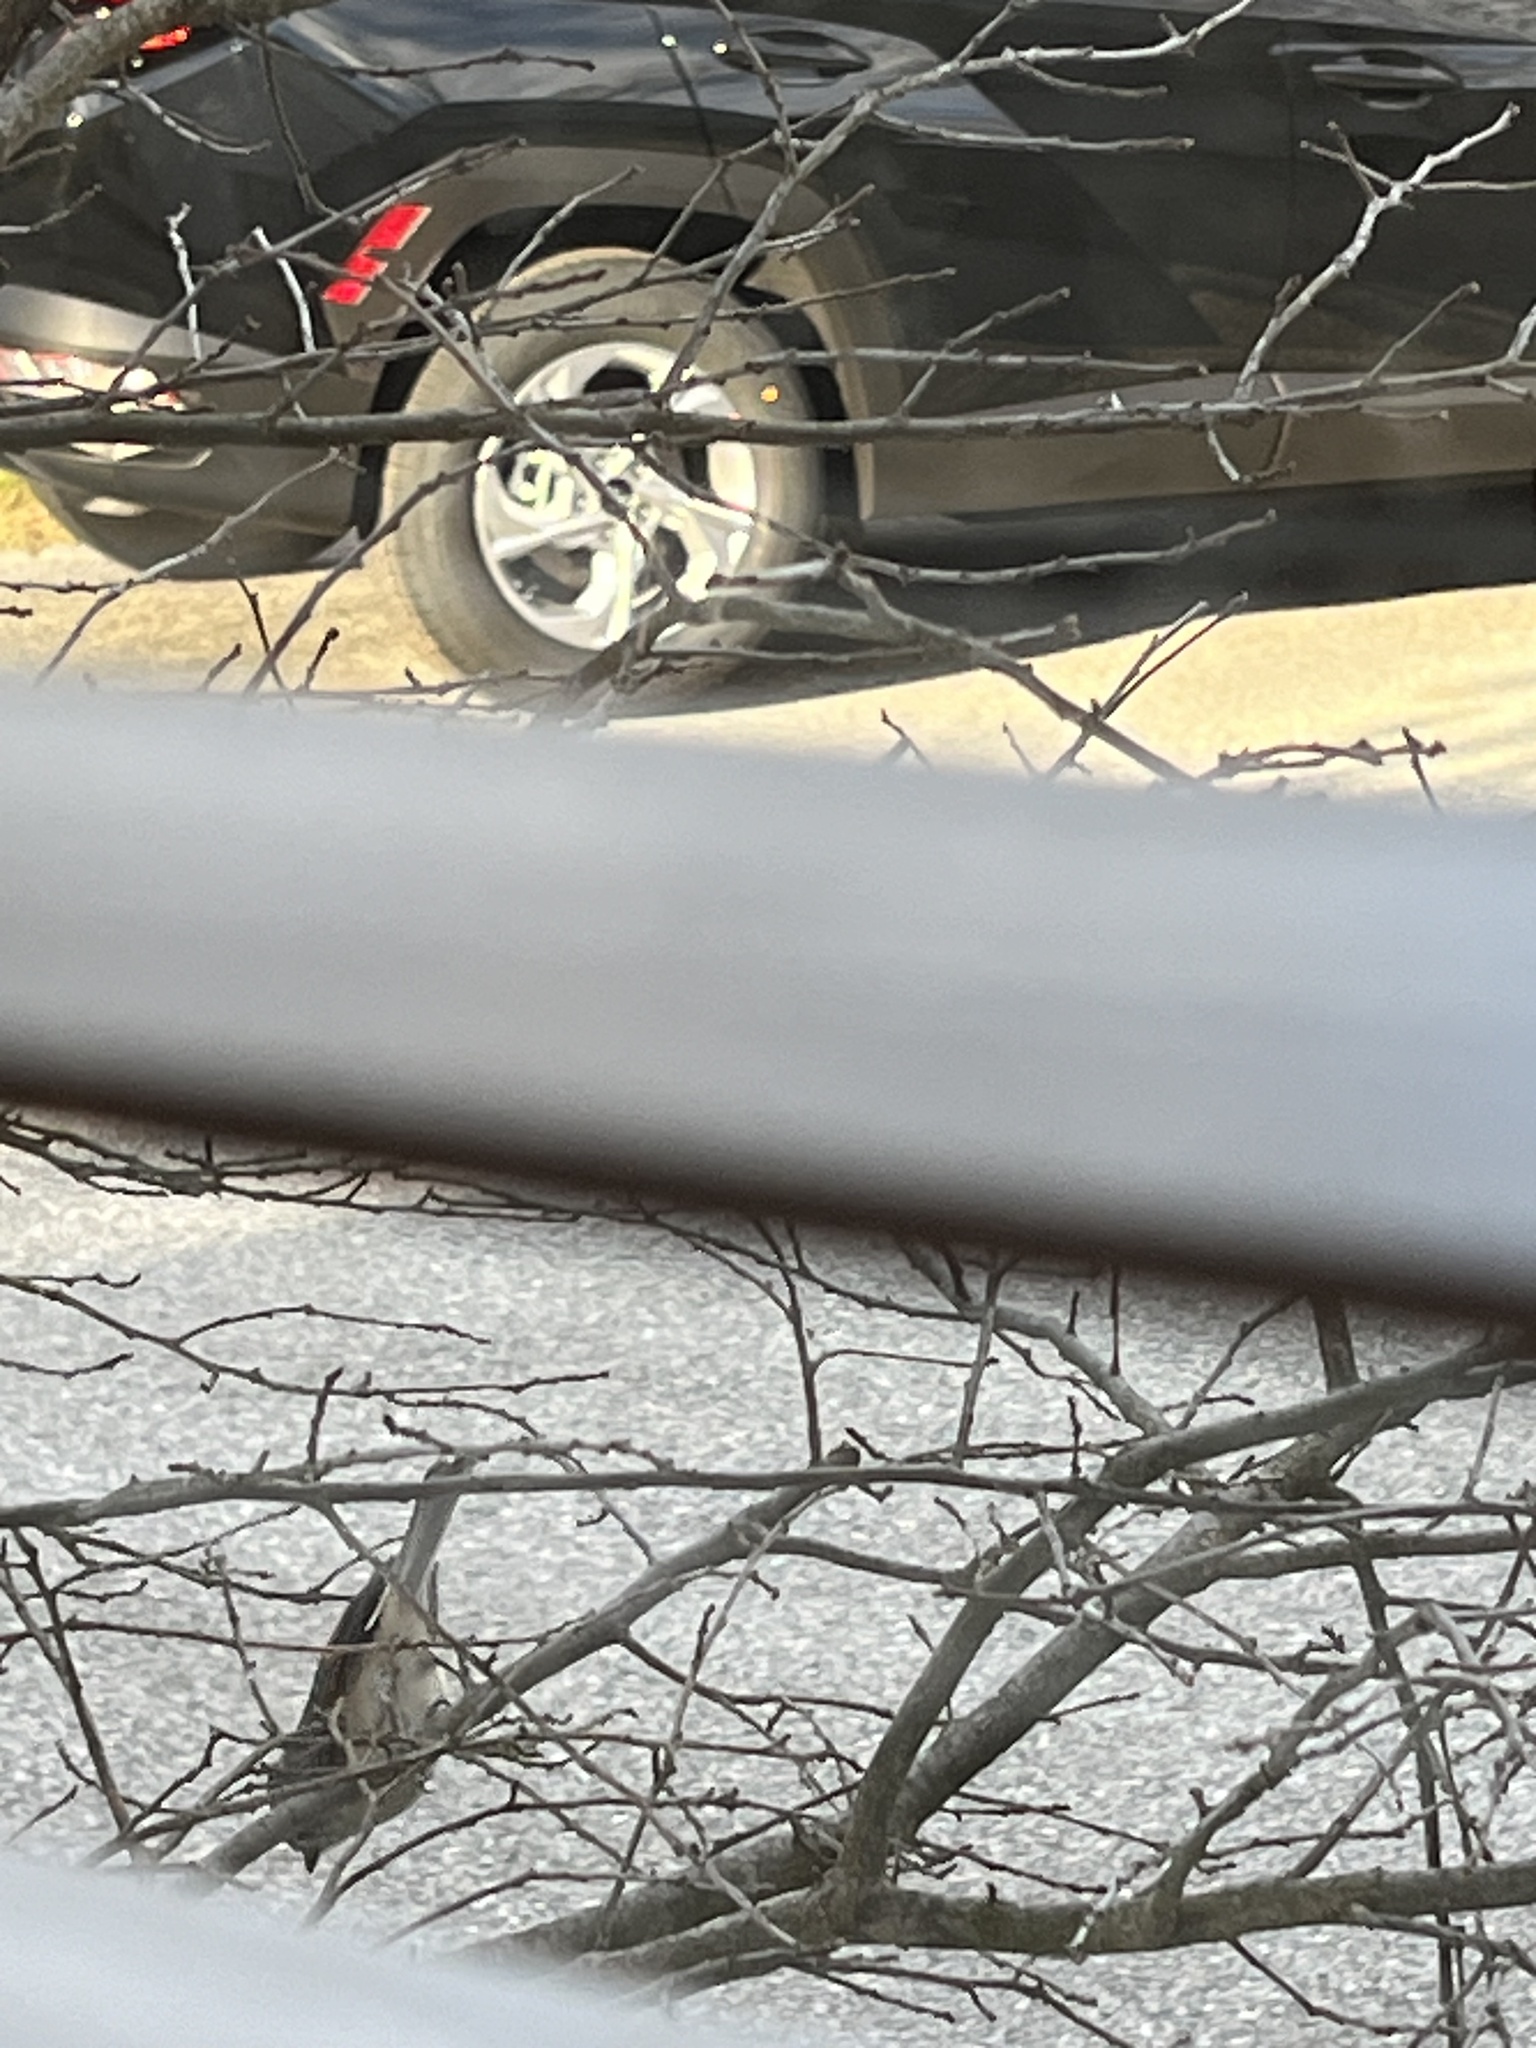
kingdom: Animalia
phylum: Chordata
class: Aves
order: Passeriformes
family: Paridae
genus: Baeolophus
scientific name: Baeolophus bicolor
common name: Tufted titmouse
